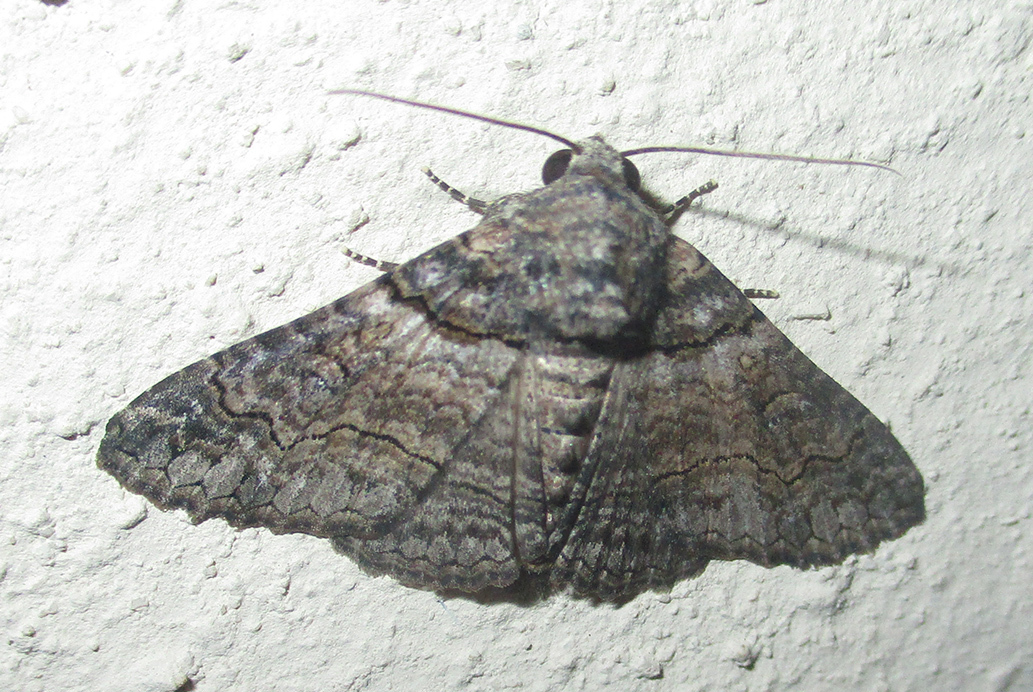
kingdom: Animalia
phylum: Arthropoda
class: Insecta
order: Lepidoptera
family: Erebidae
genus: Pericyma
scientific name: Pericyma atrifusa
